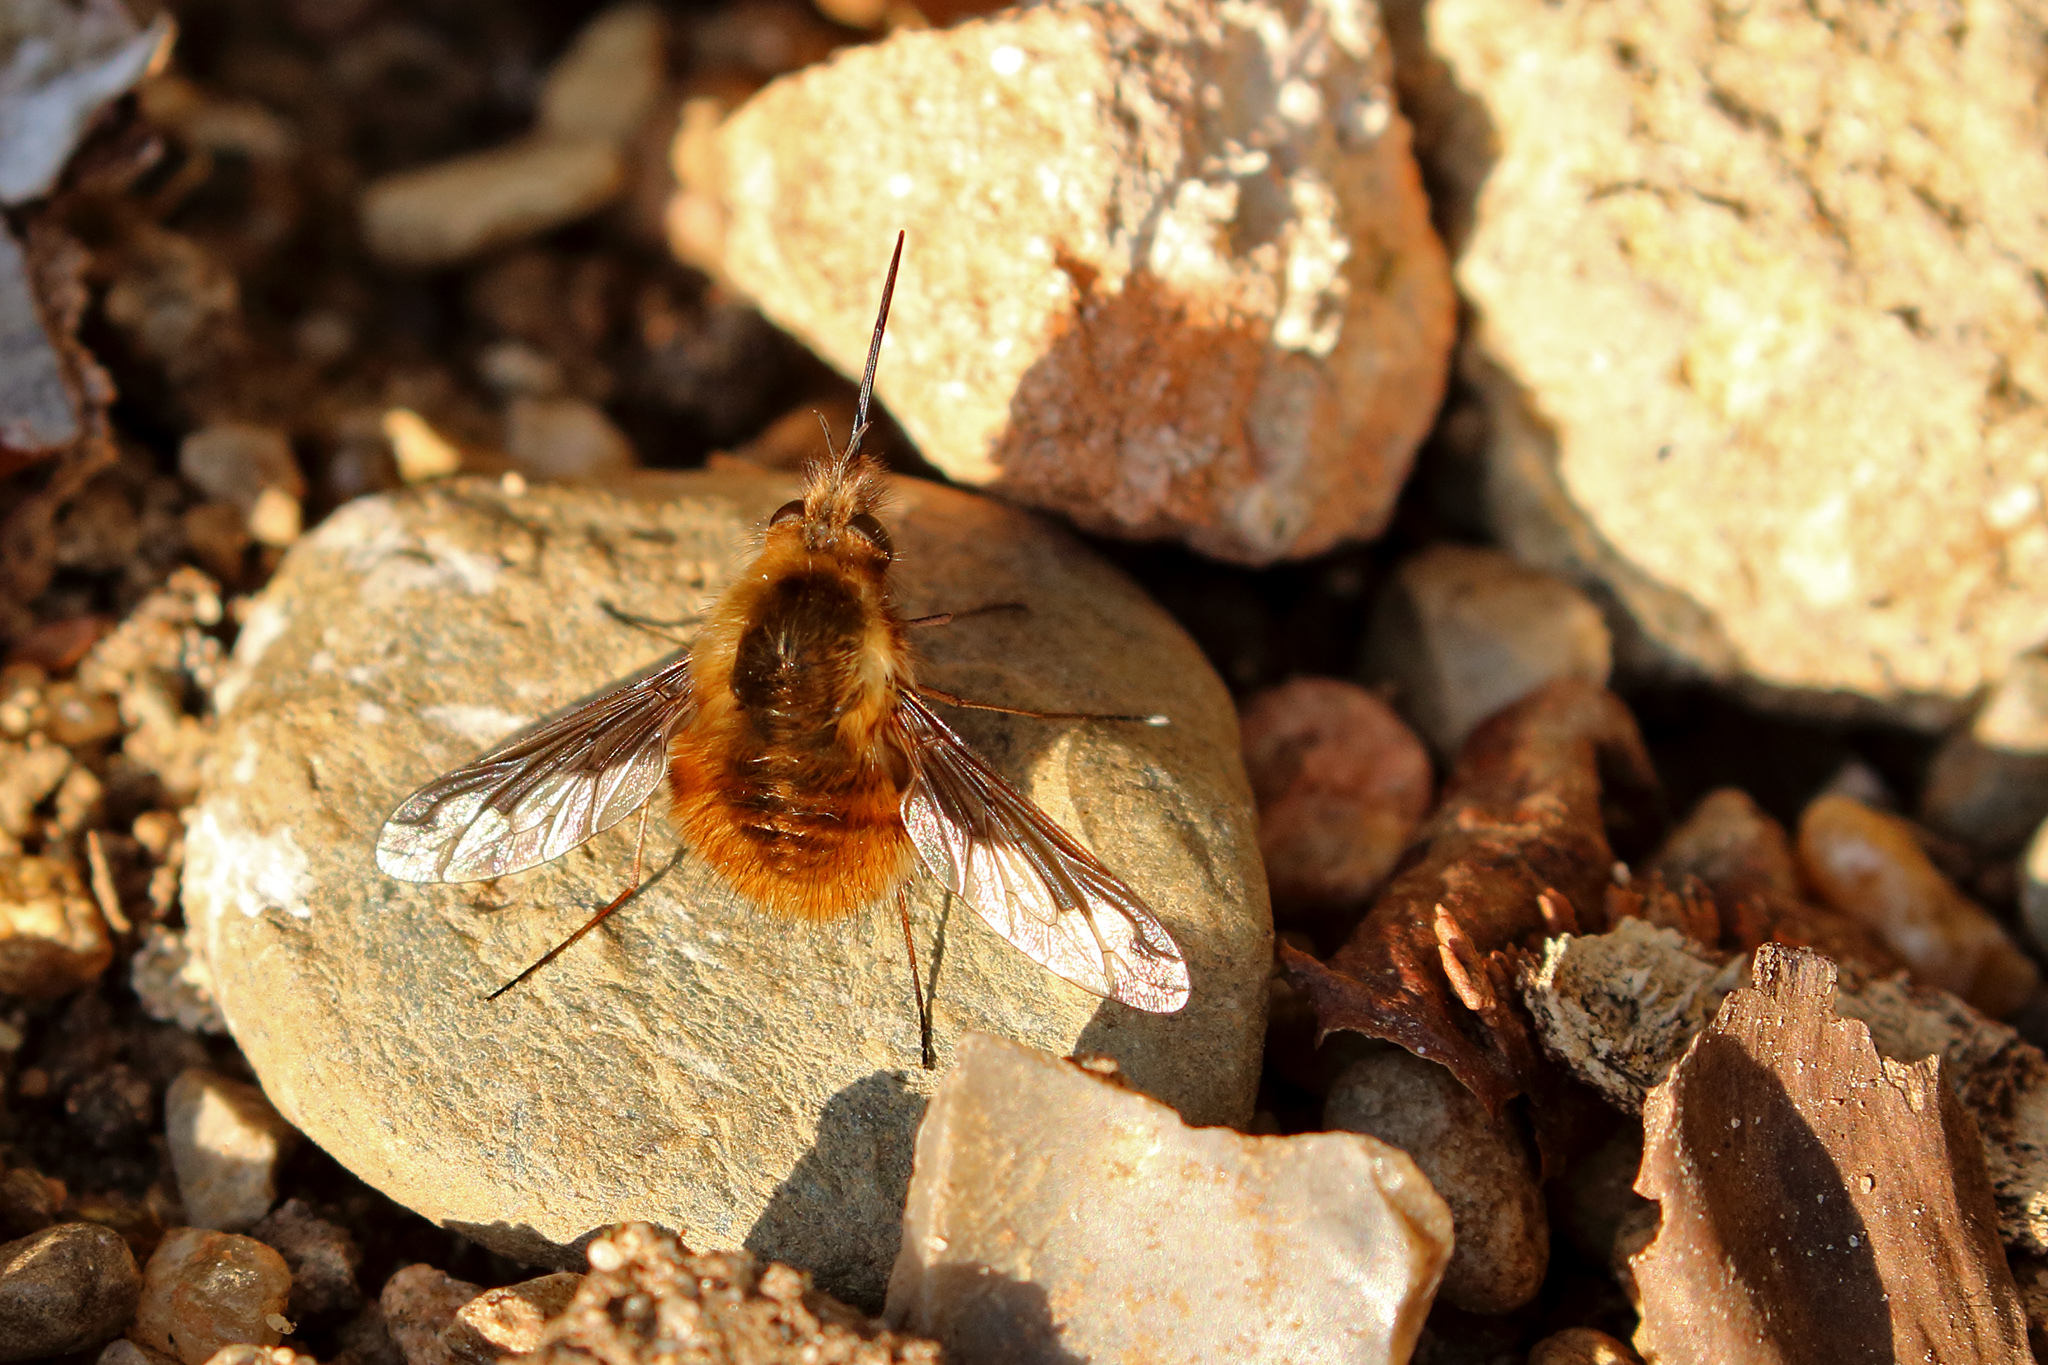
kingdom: Animalia
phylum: Arthropoda
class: Insecta
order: Diptera
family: Bombyliidae
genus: Bombylius
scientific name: Bombylius major
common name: Bee fly
